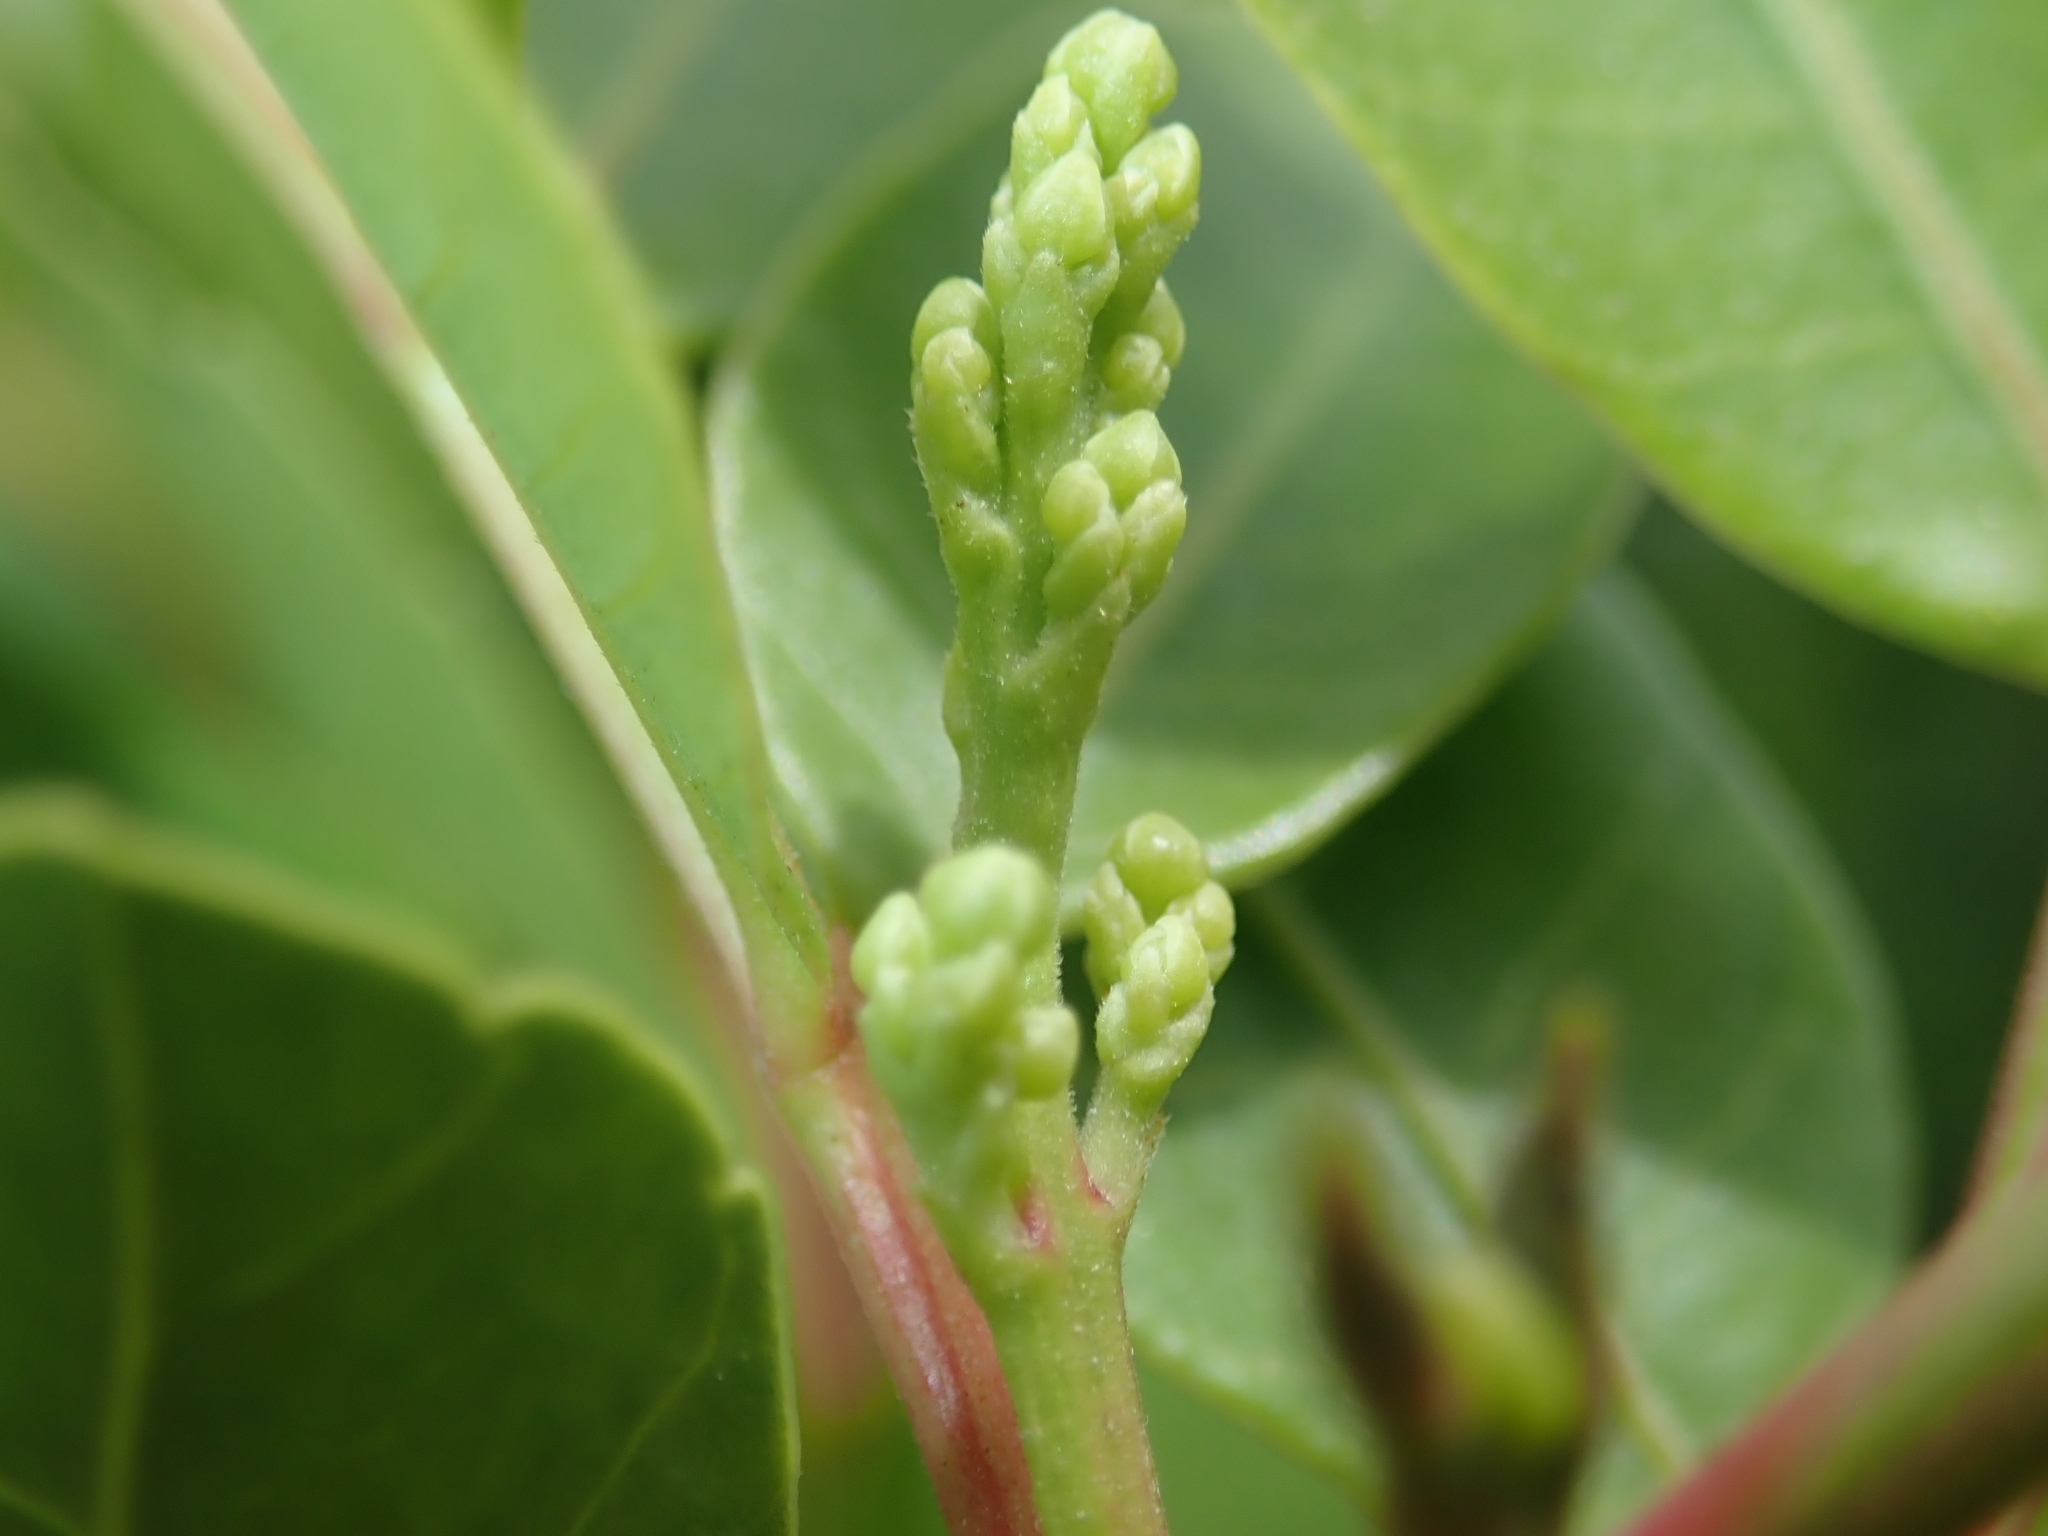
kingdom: Plantae
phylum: Tracheophyta
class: Magnoliopsida
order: Sapindales
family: Anacardiaceae
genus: Schinus
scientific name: Schinus terebinthifolia
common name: Brazilian peppertree
